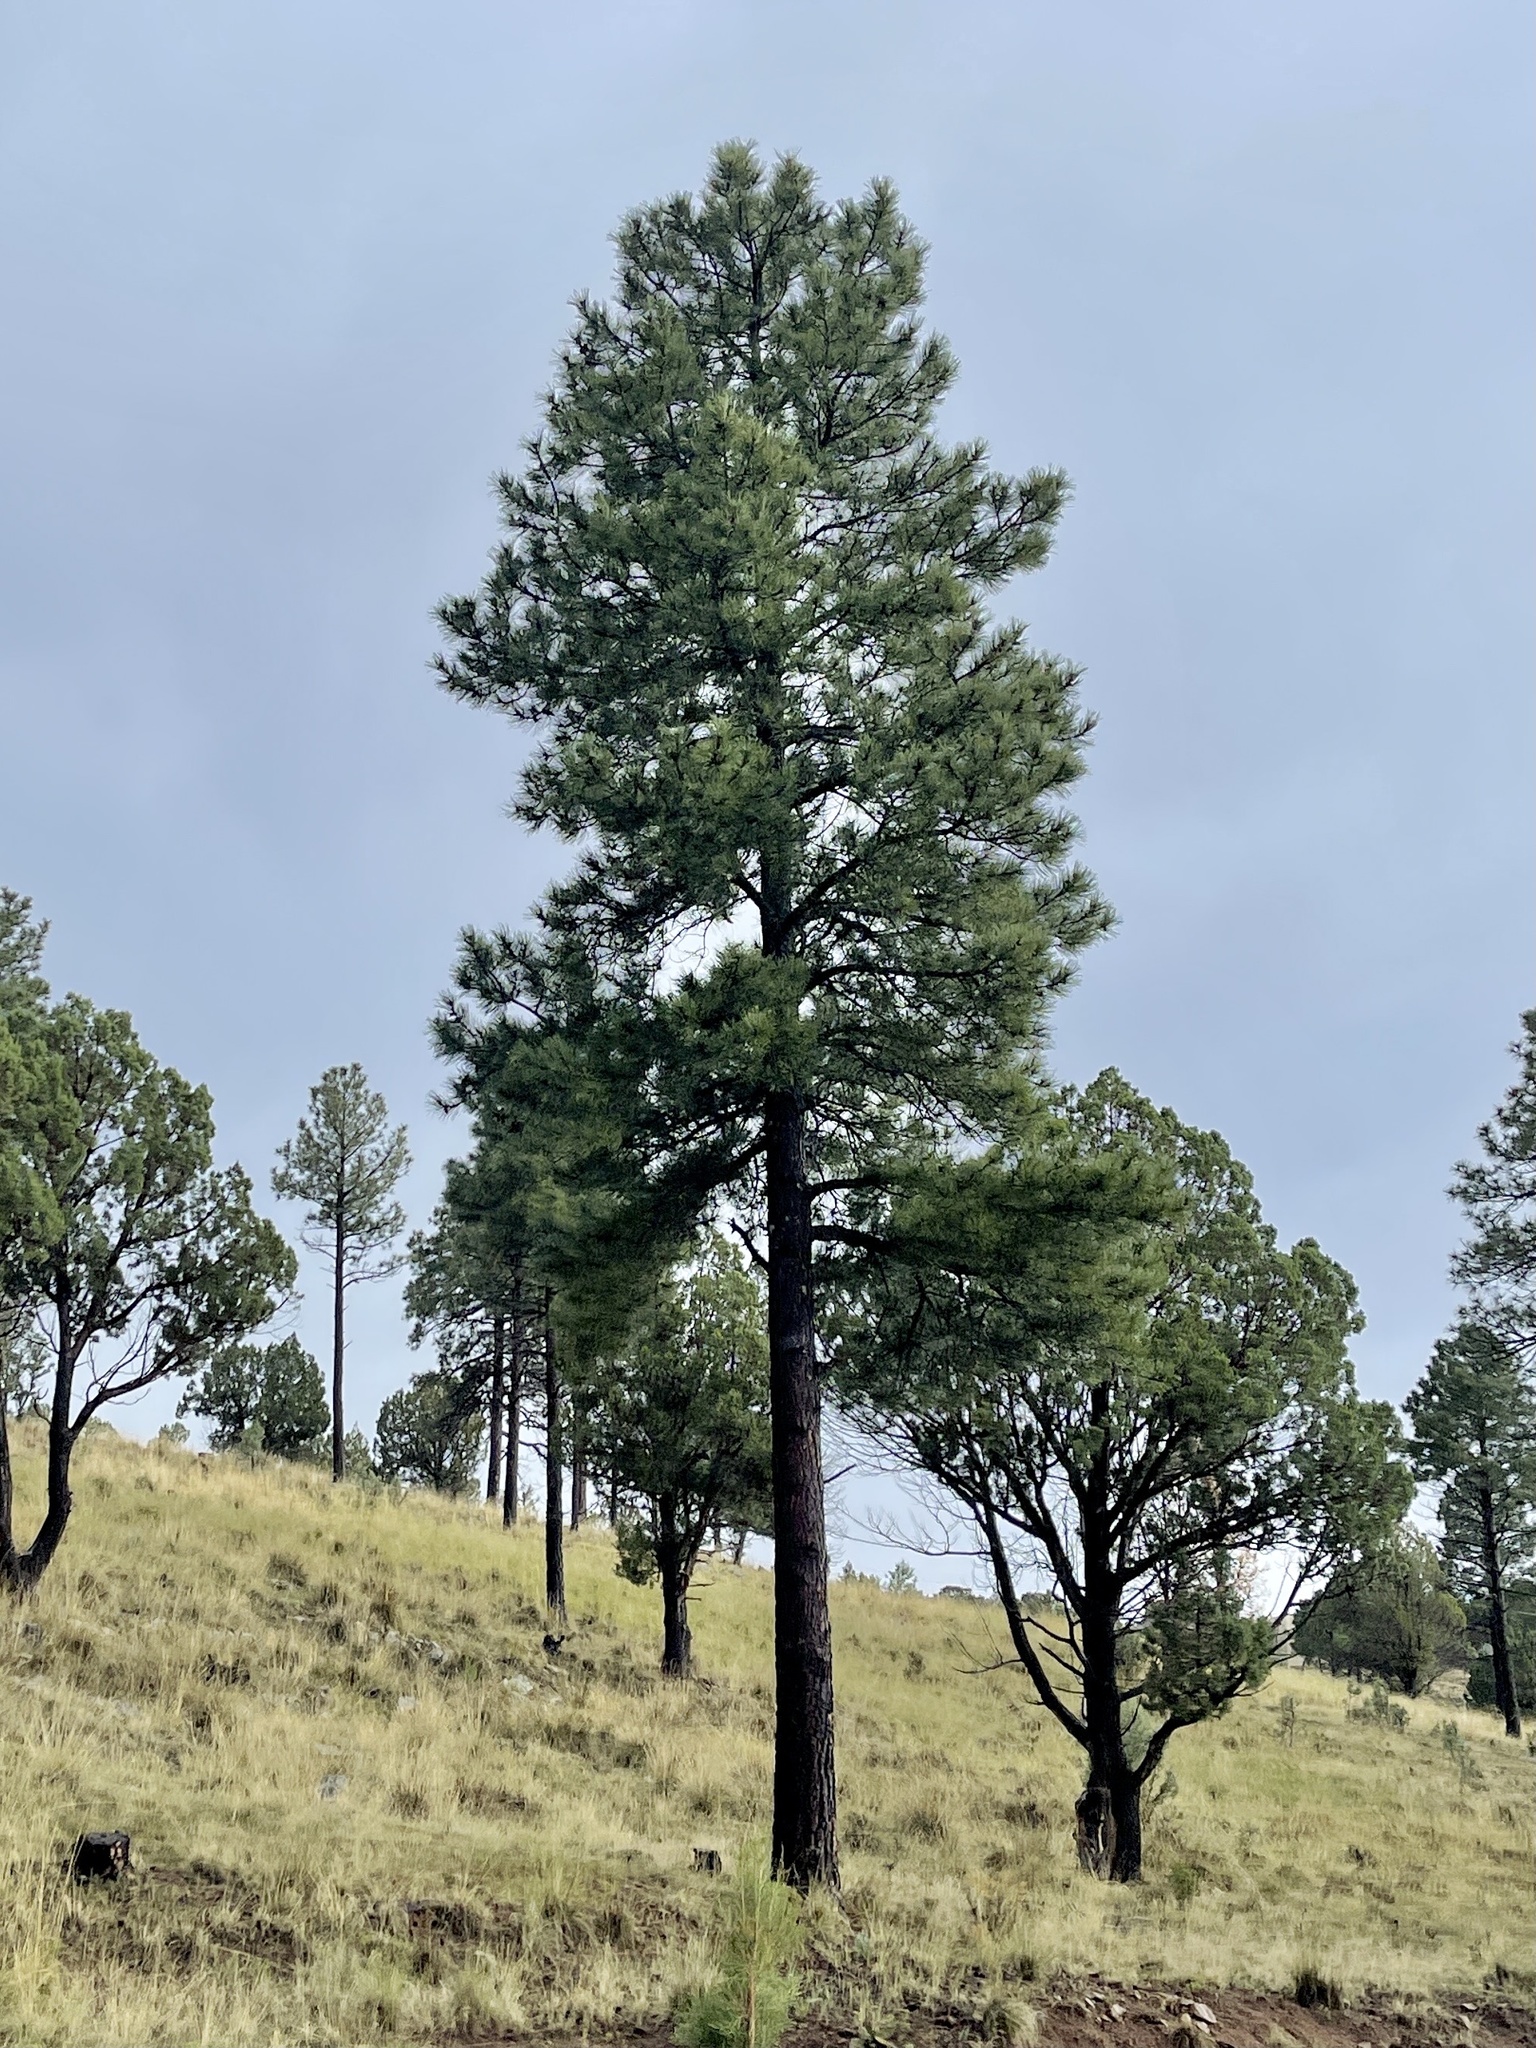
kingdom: Plantae
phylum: Tracheophyta
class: Pinopsida
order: Pinales
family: Pinaceae
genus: Pinus
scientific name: Pinus ponderosa
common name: Western yellow-pine
